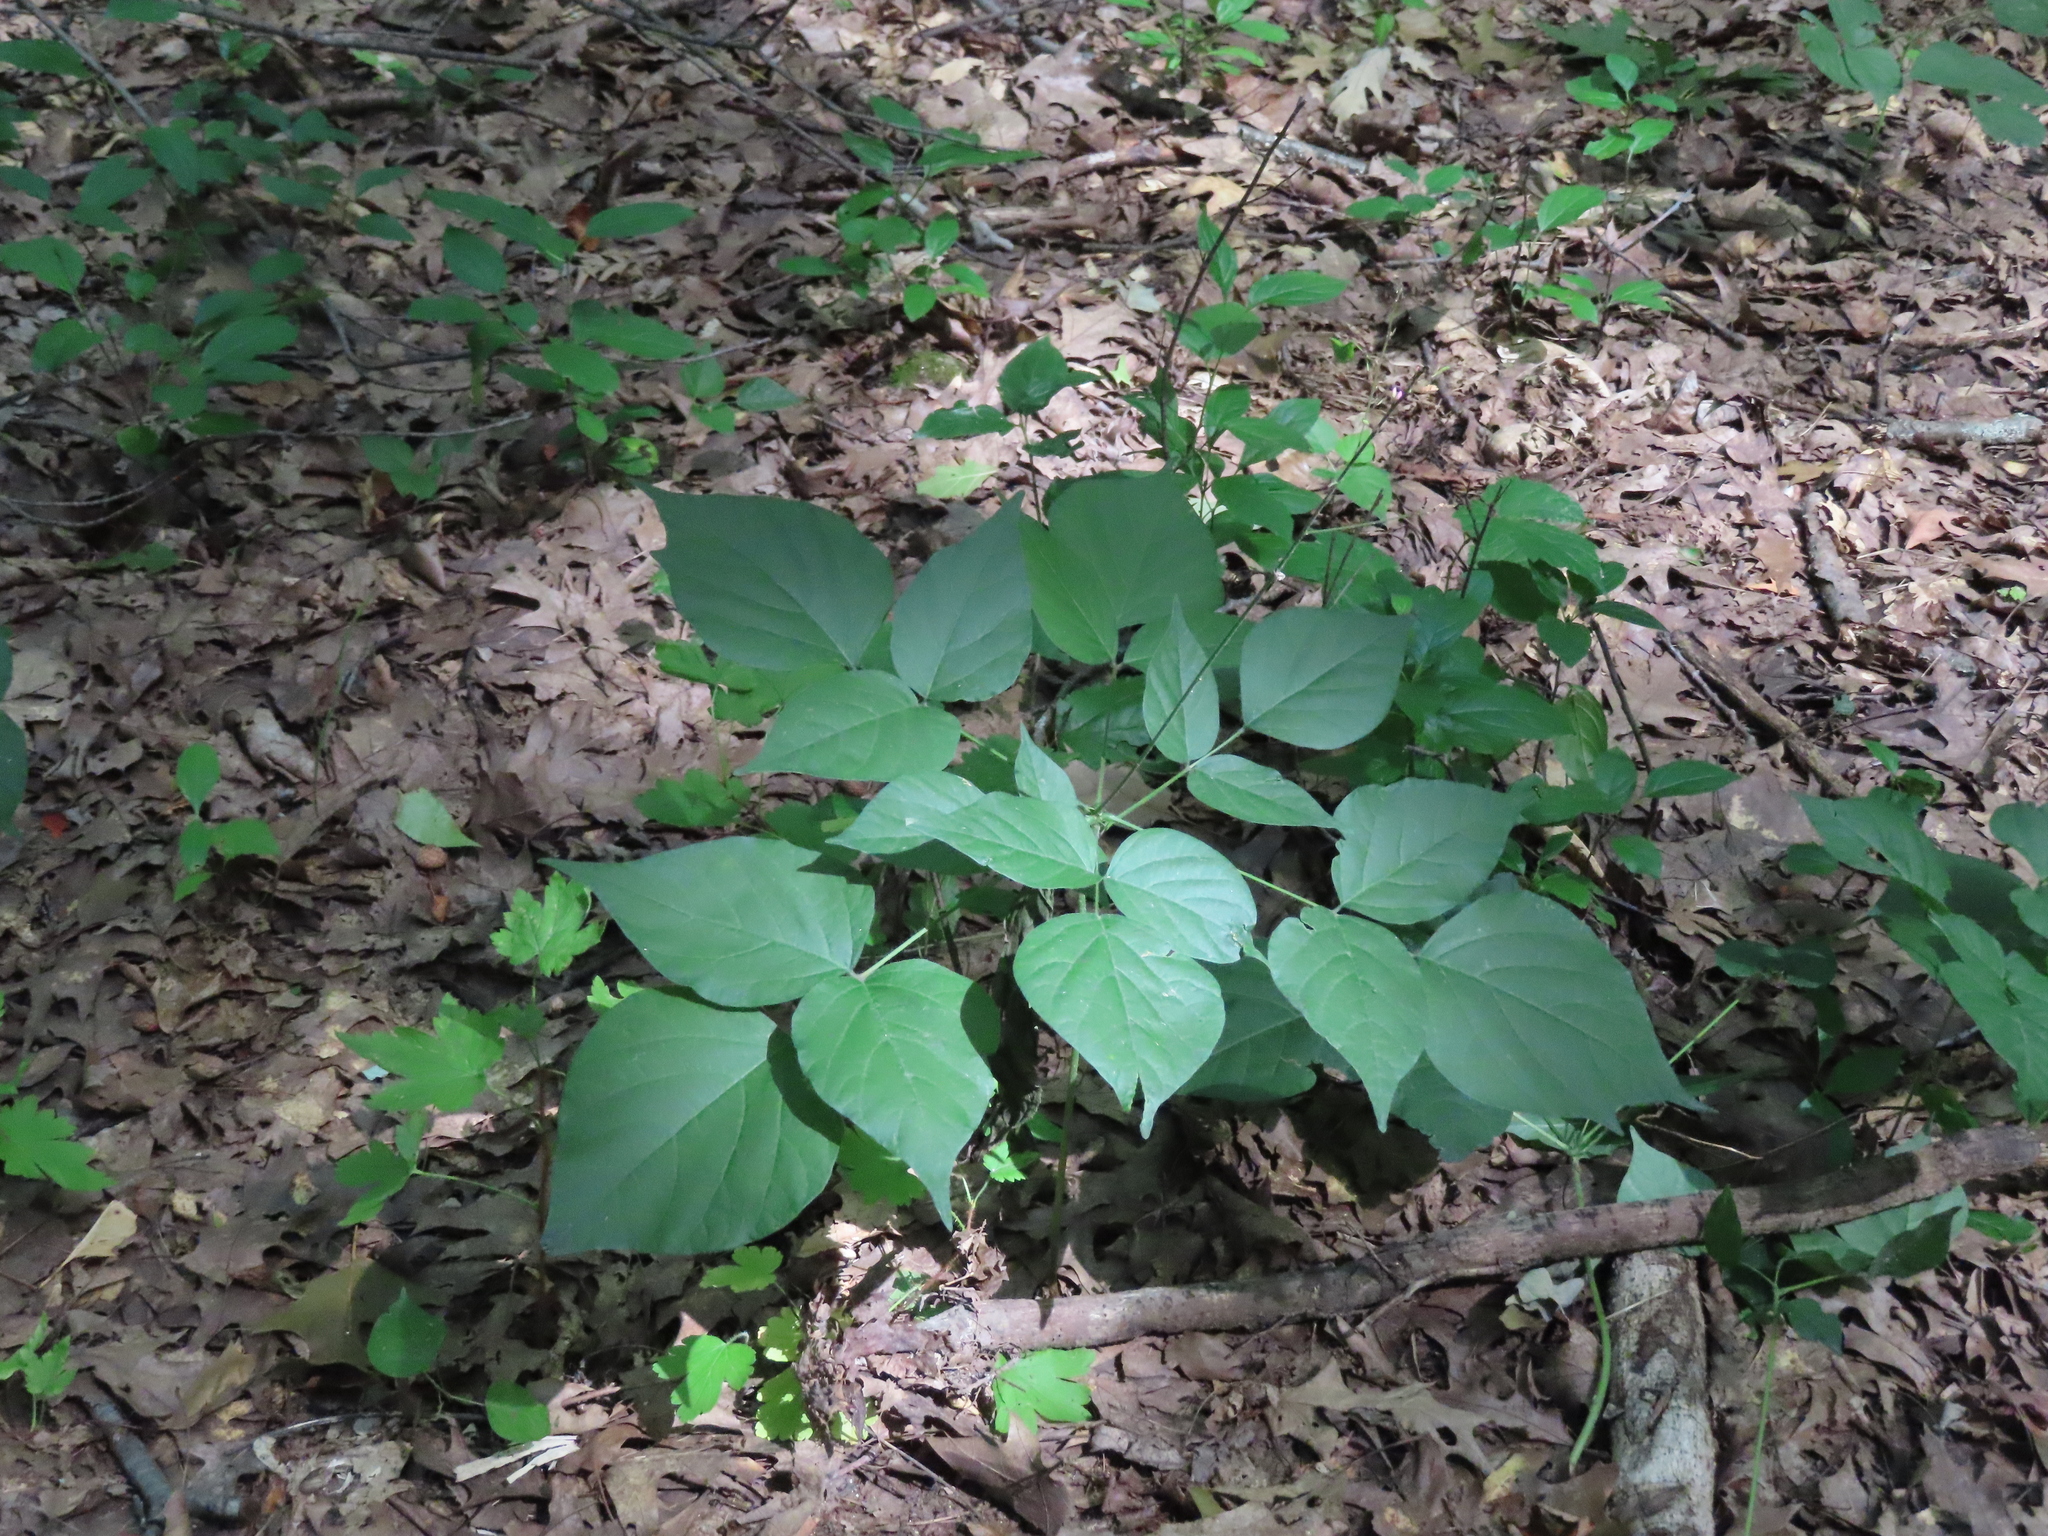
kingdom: Plantae
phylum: Tracheophyta
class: Magnoliopsida
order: Fabales
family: Fabaceae
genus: Hylodesmum
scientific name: Hylodesmum glutinosum
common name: Clustered-leaved tick-trefoil
